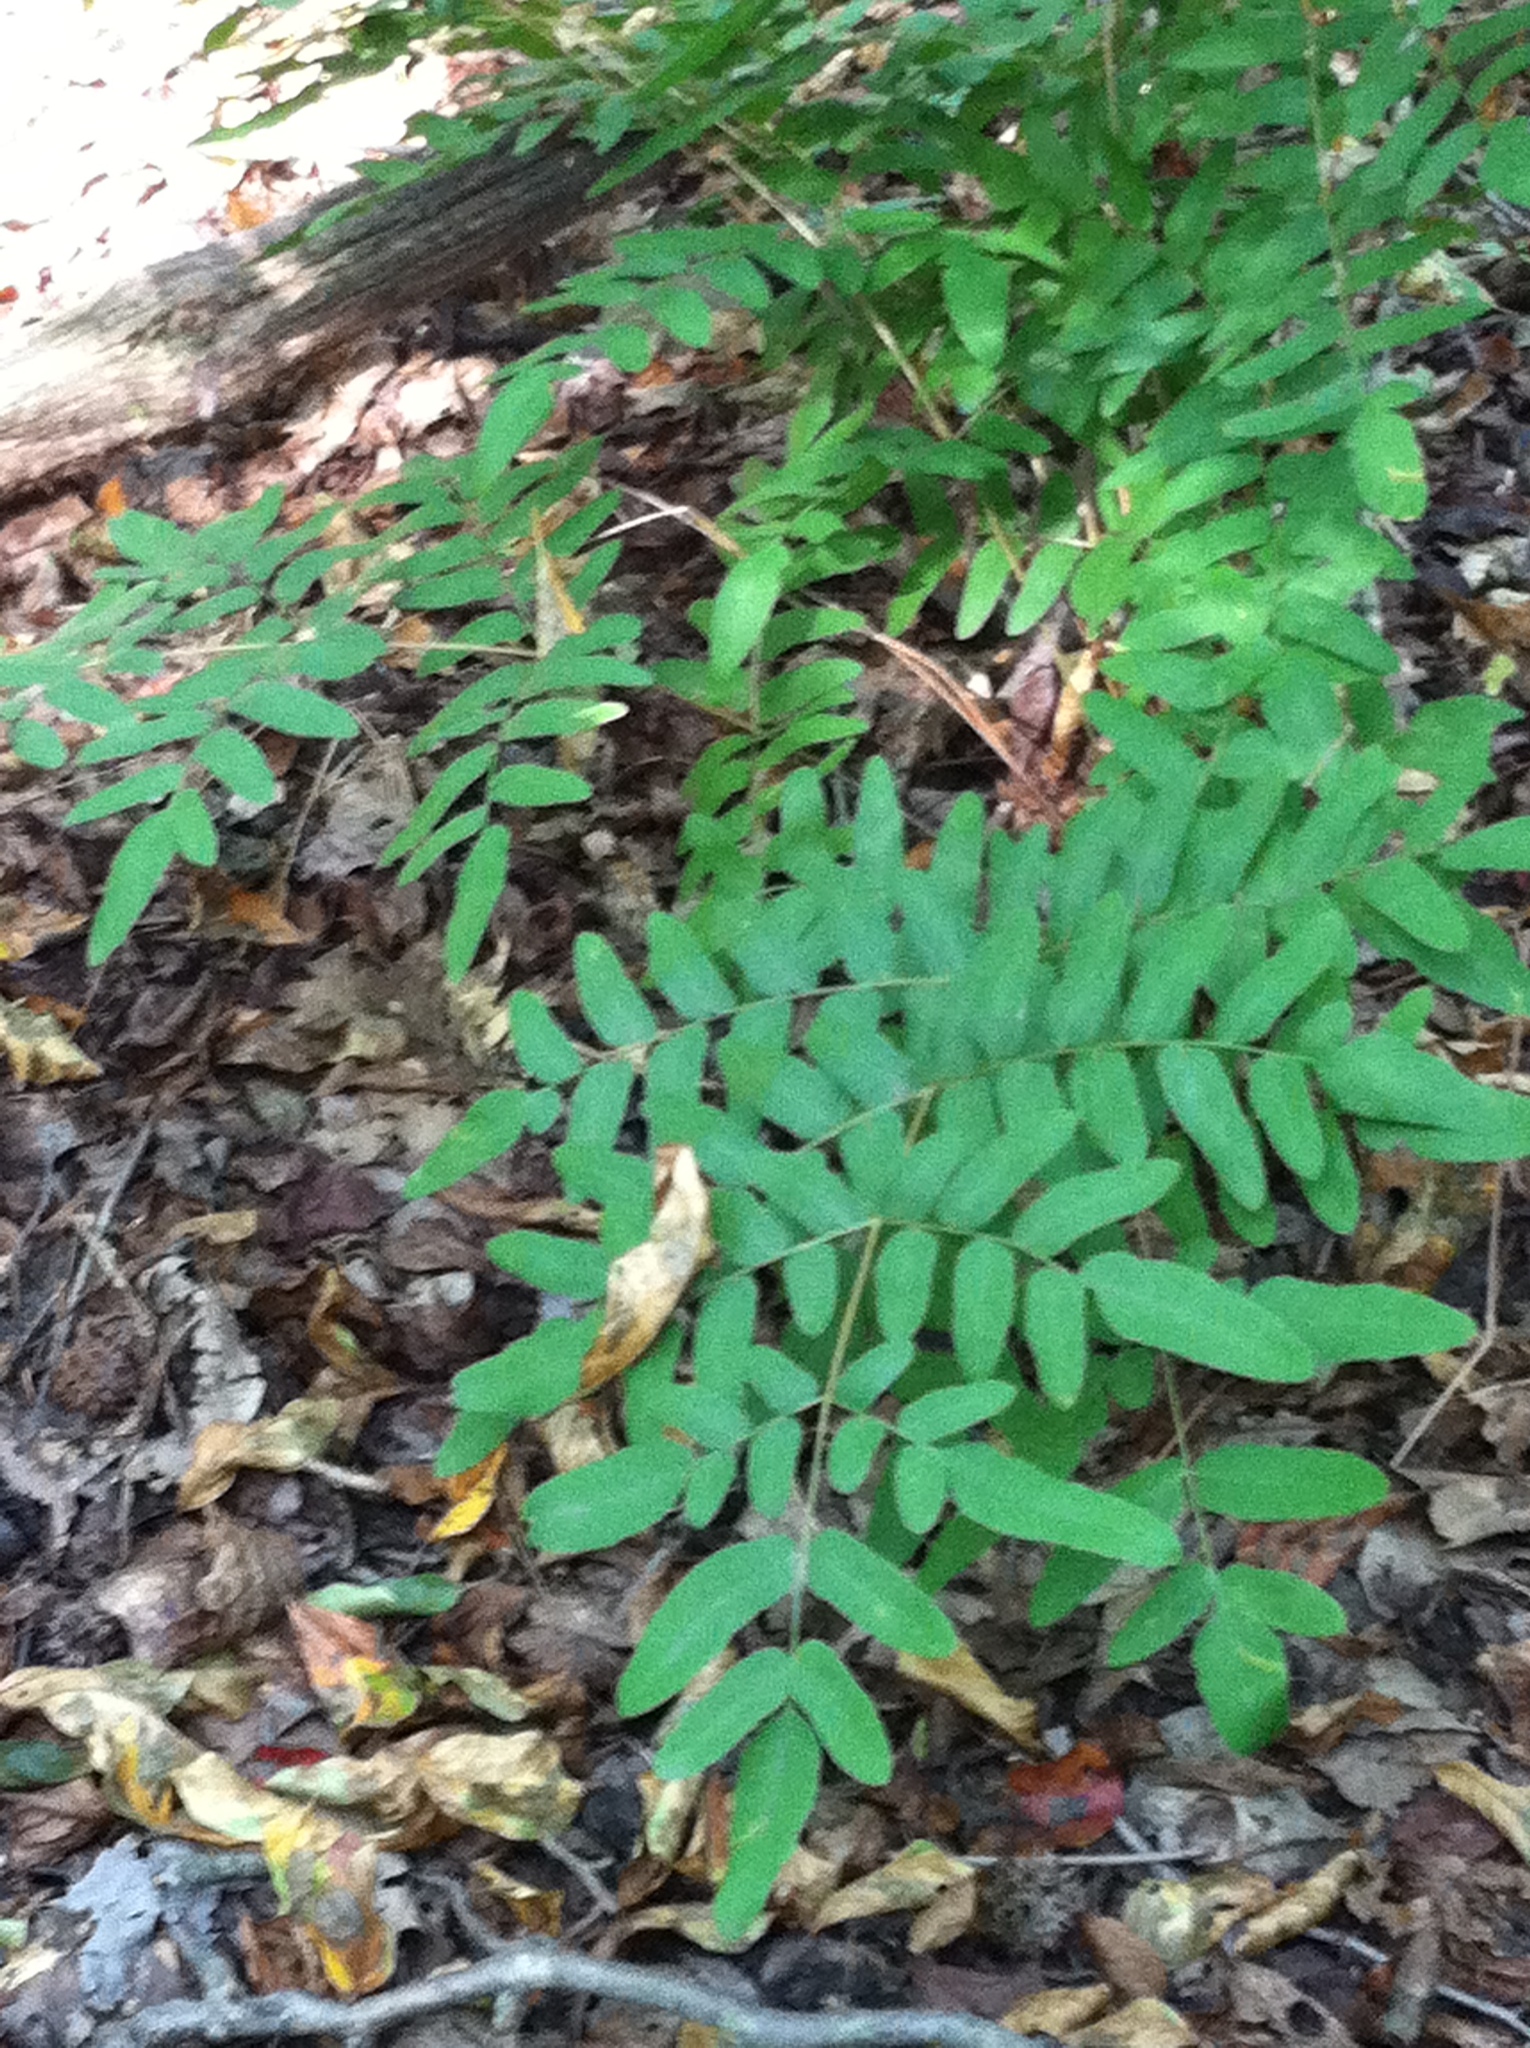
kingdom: Plantae
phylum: Tracheophyta
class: Polypodiopsida
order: Osmundales
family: Osmundaceae
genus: Osmunda
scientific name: Osmunda spectabilis
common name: American royal fern
